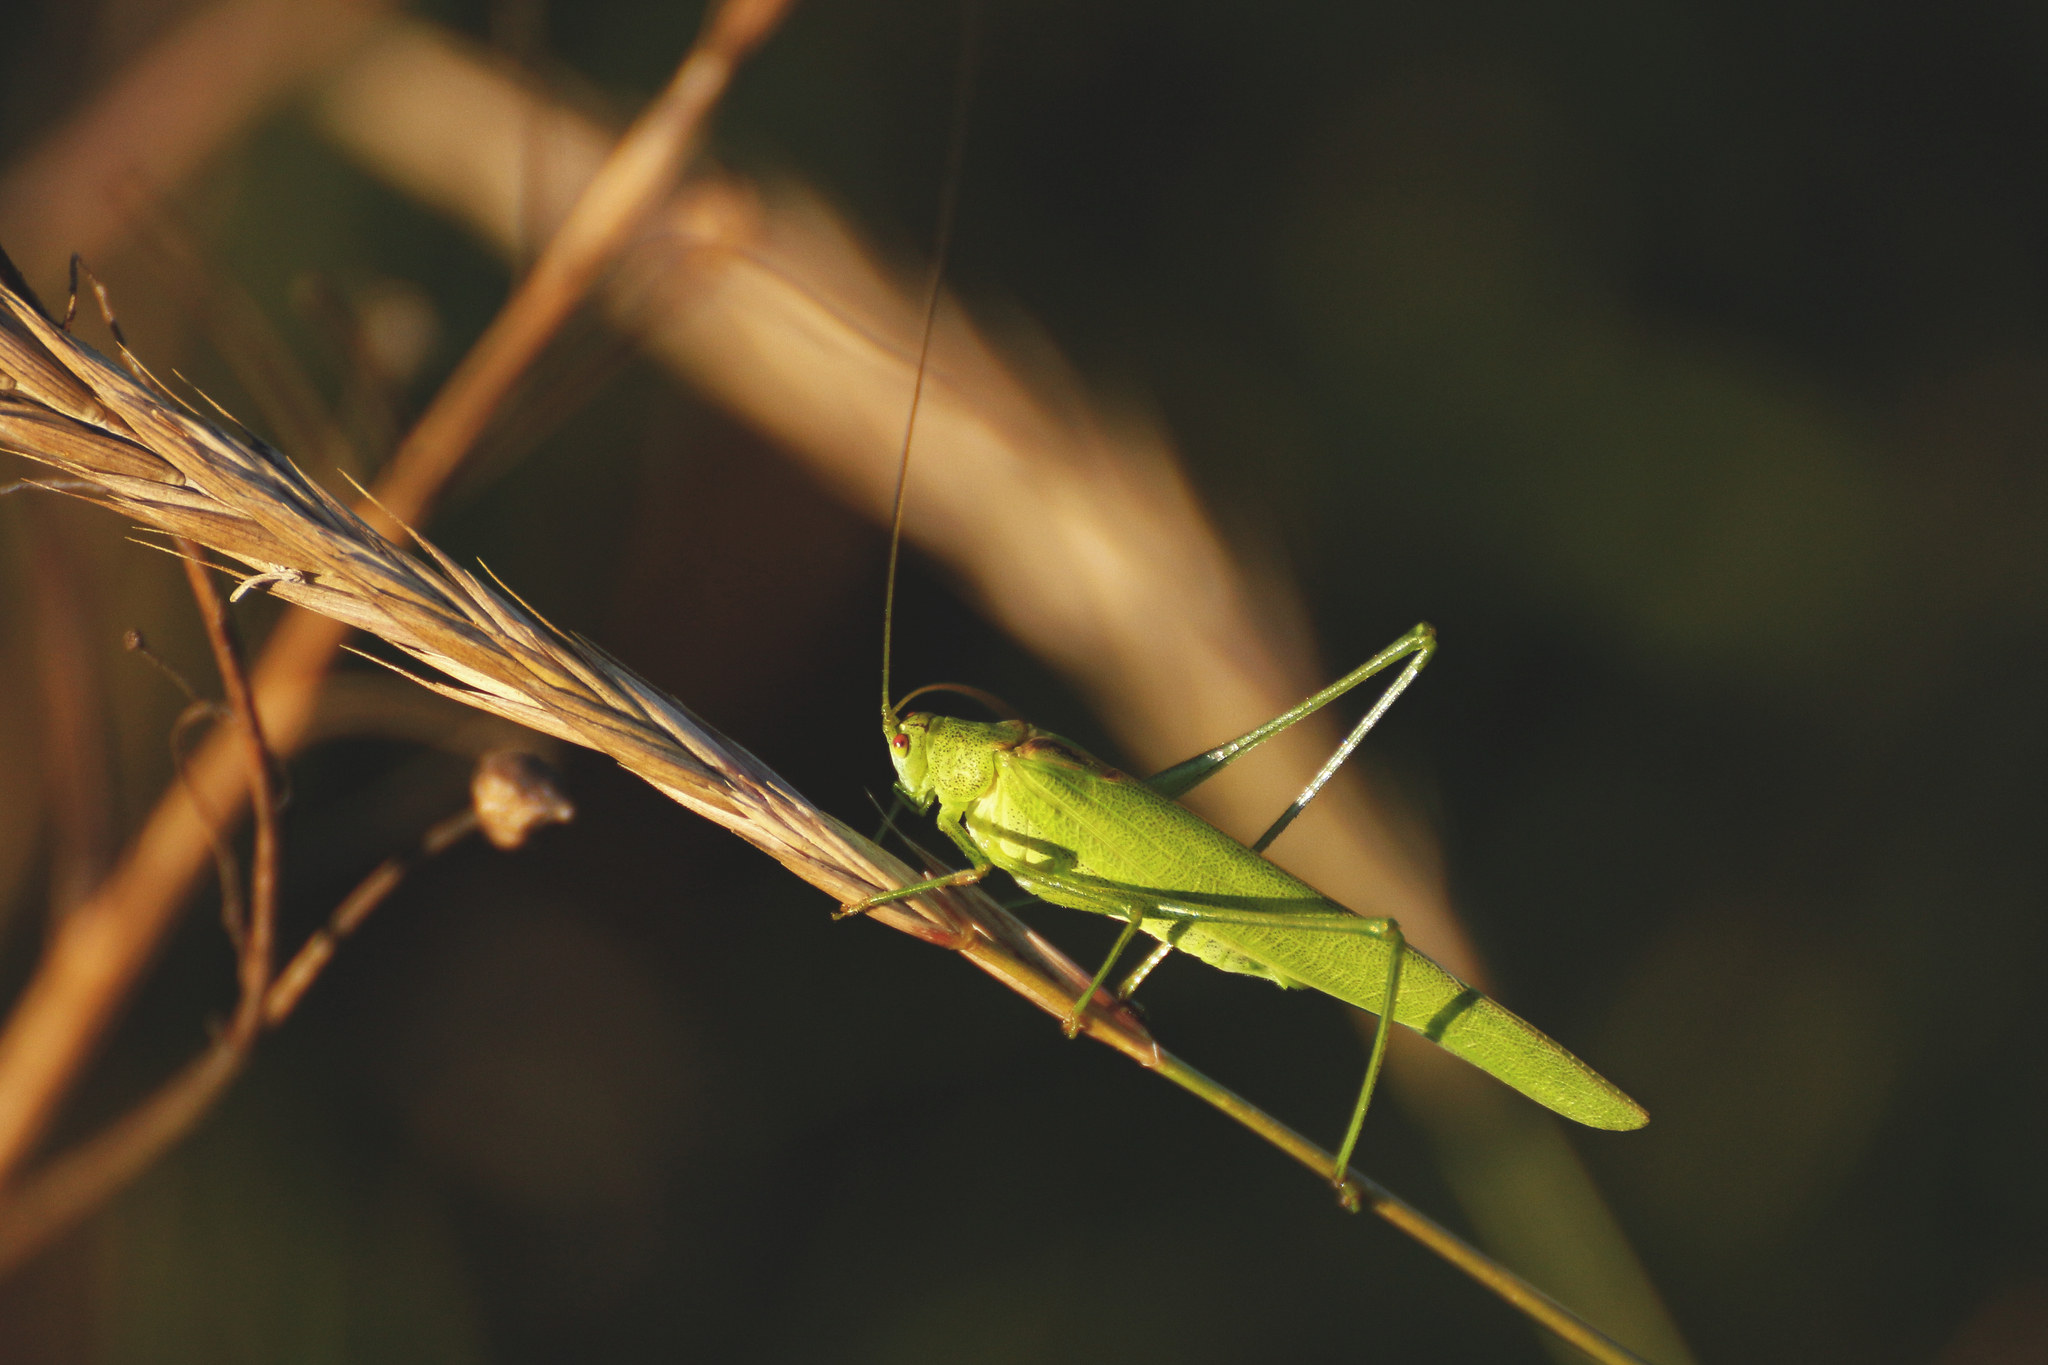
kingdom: Animalia
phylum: Arthropoda
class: Insecta
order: Orthoptera
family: Tettigoniidae
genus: Phaneroptera
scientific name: Phaneroptera falcata
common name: Sickle-bearing bush-cricket
